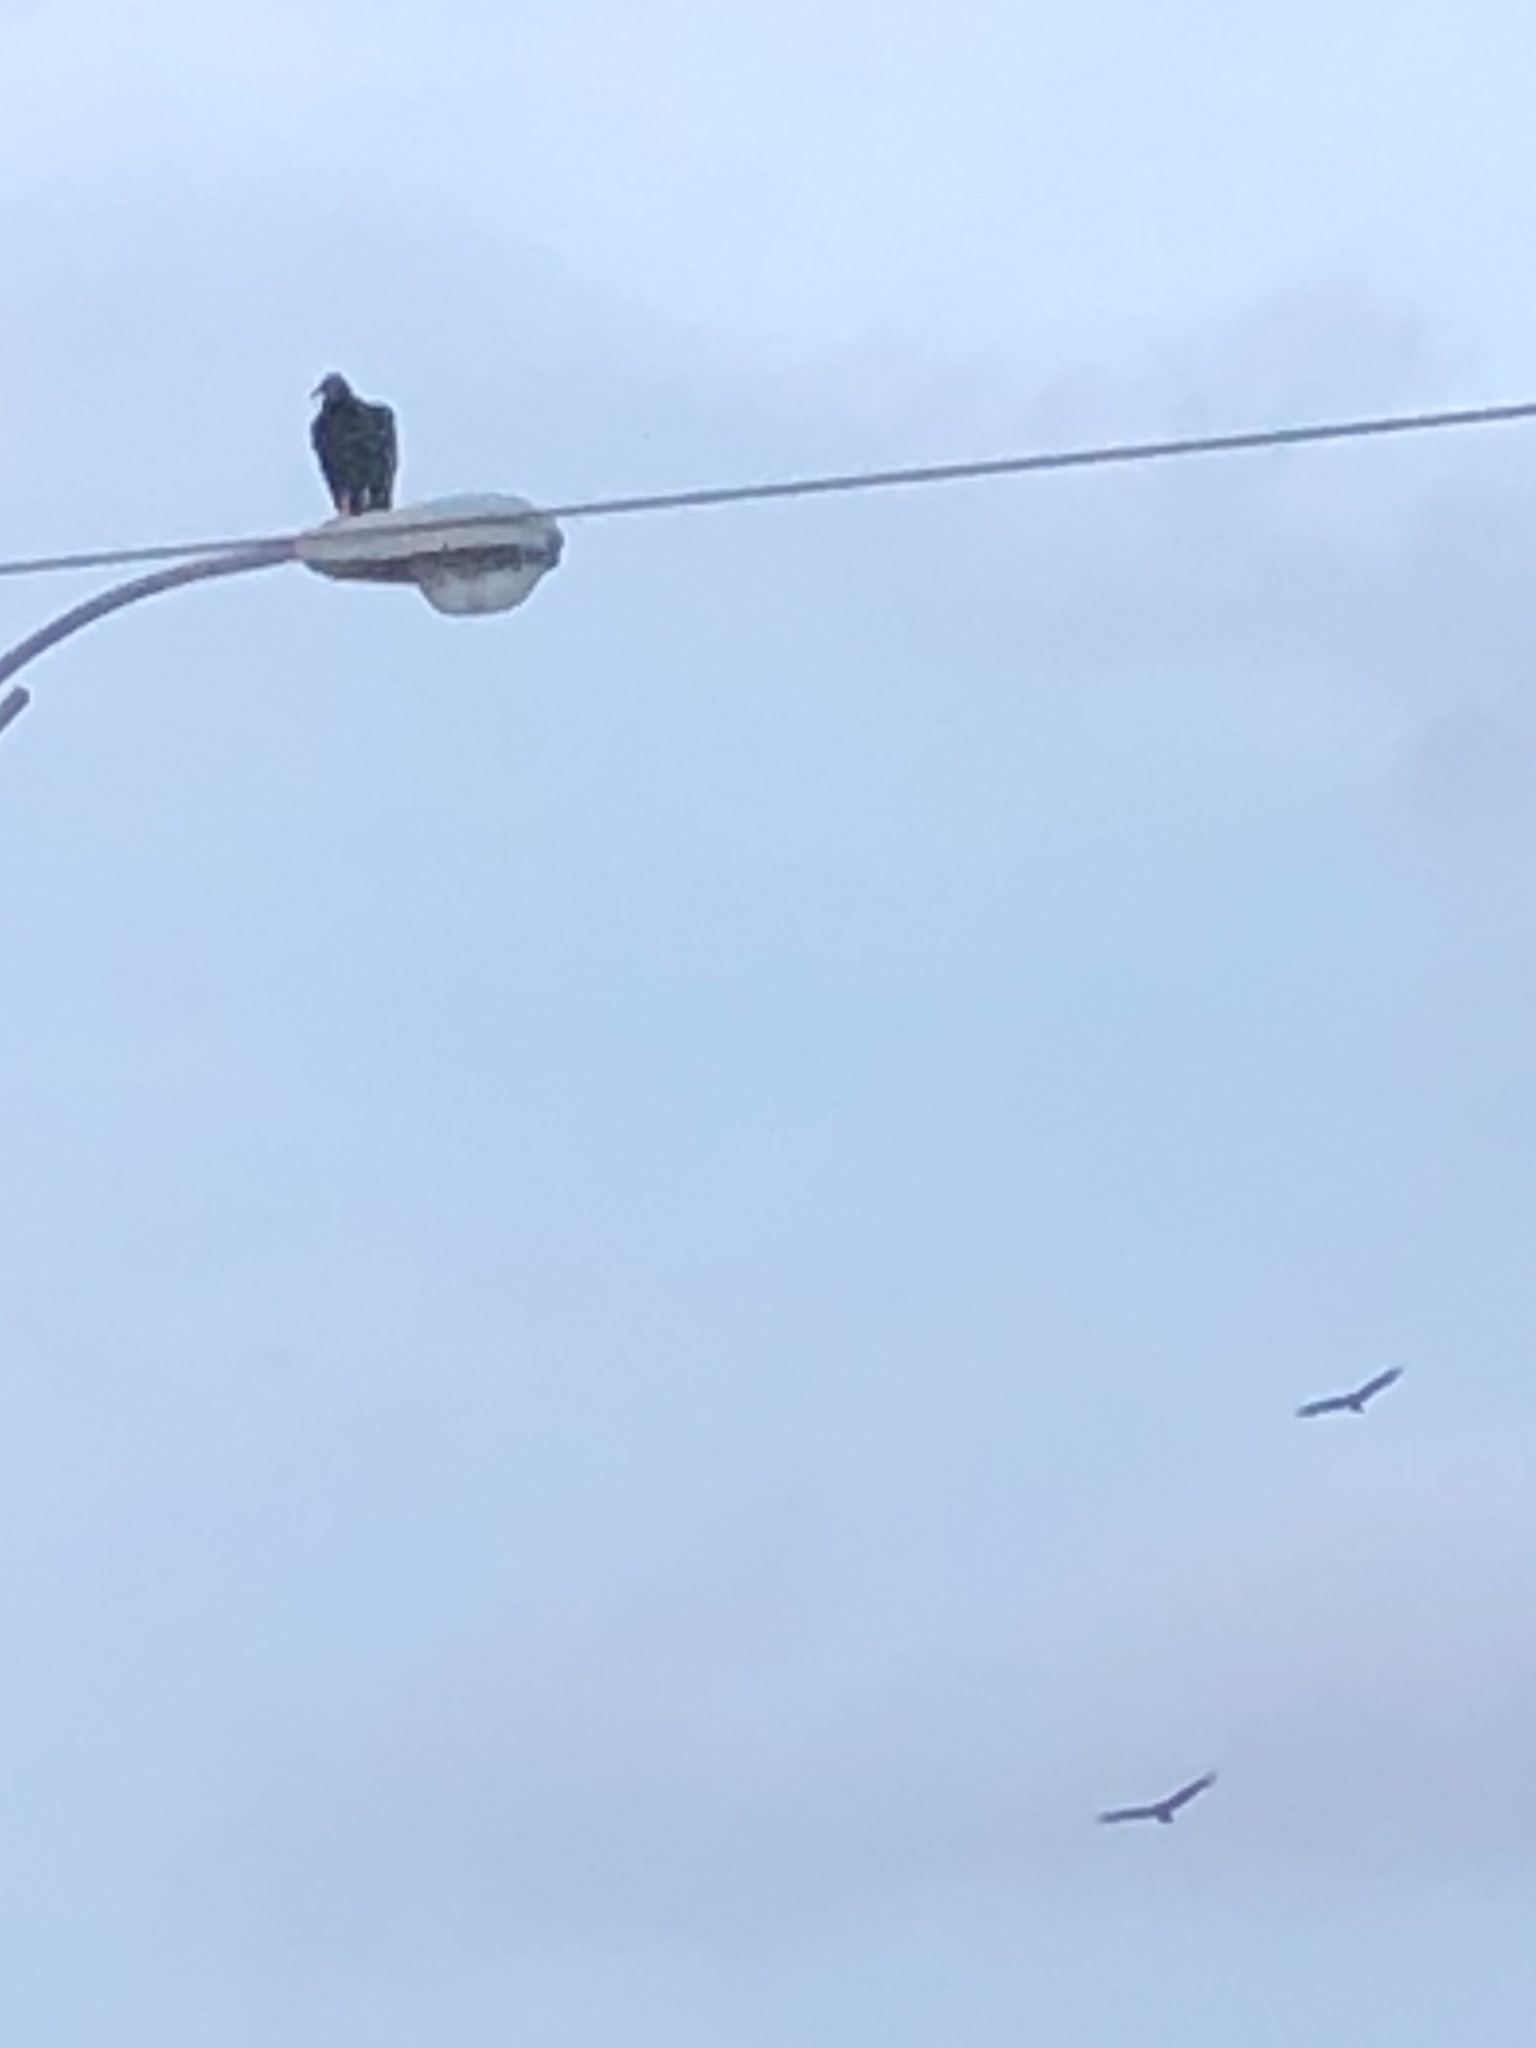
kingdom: Animalia
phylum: Chordata
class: Aves
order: Accipitriformes
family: Cathartidae
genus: Coragyps
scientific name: Coragyps atratus
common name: Black vulture
